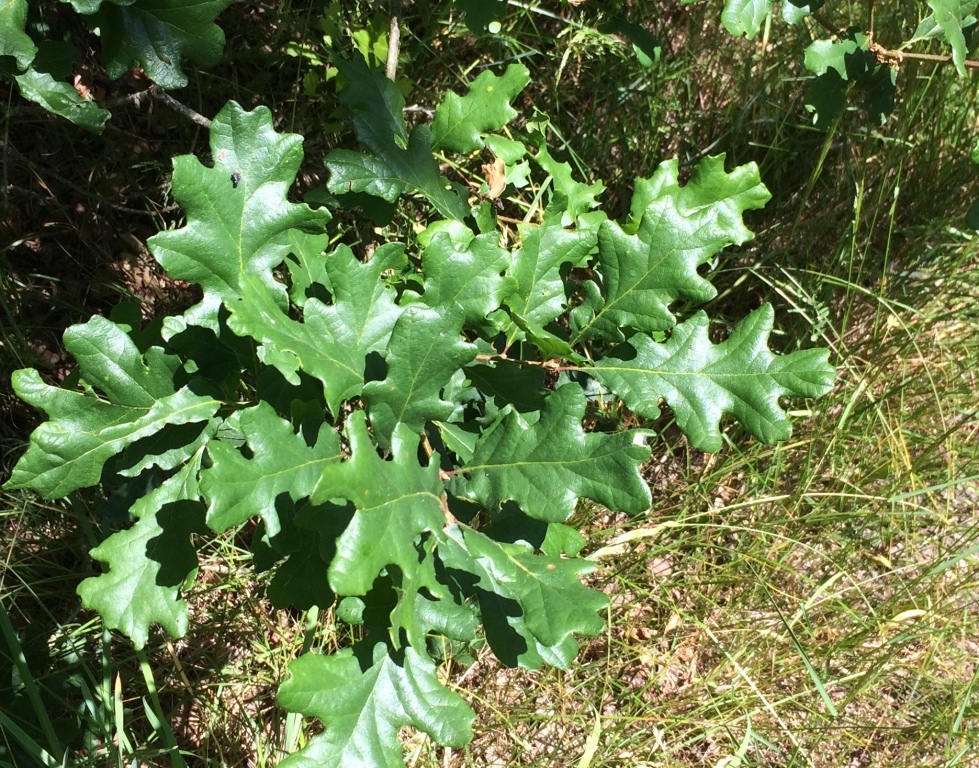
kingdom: Plantae
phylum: Tracheophyta
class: Magnoliopsida
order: Fagales
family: Fagaceae
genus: Quercus
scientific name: Quercus garryana
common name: Garry oak
